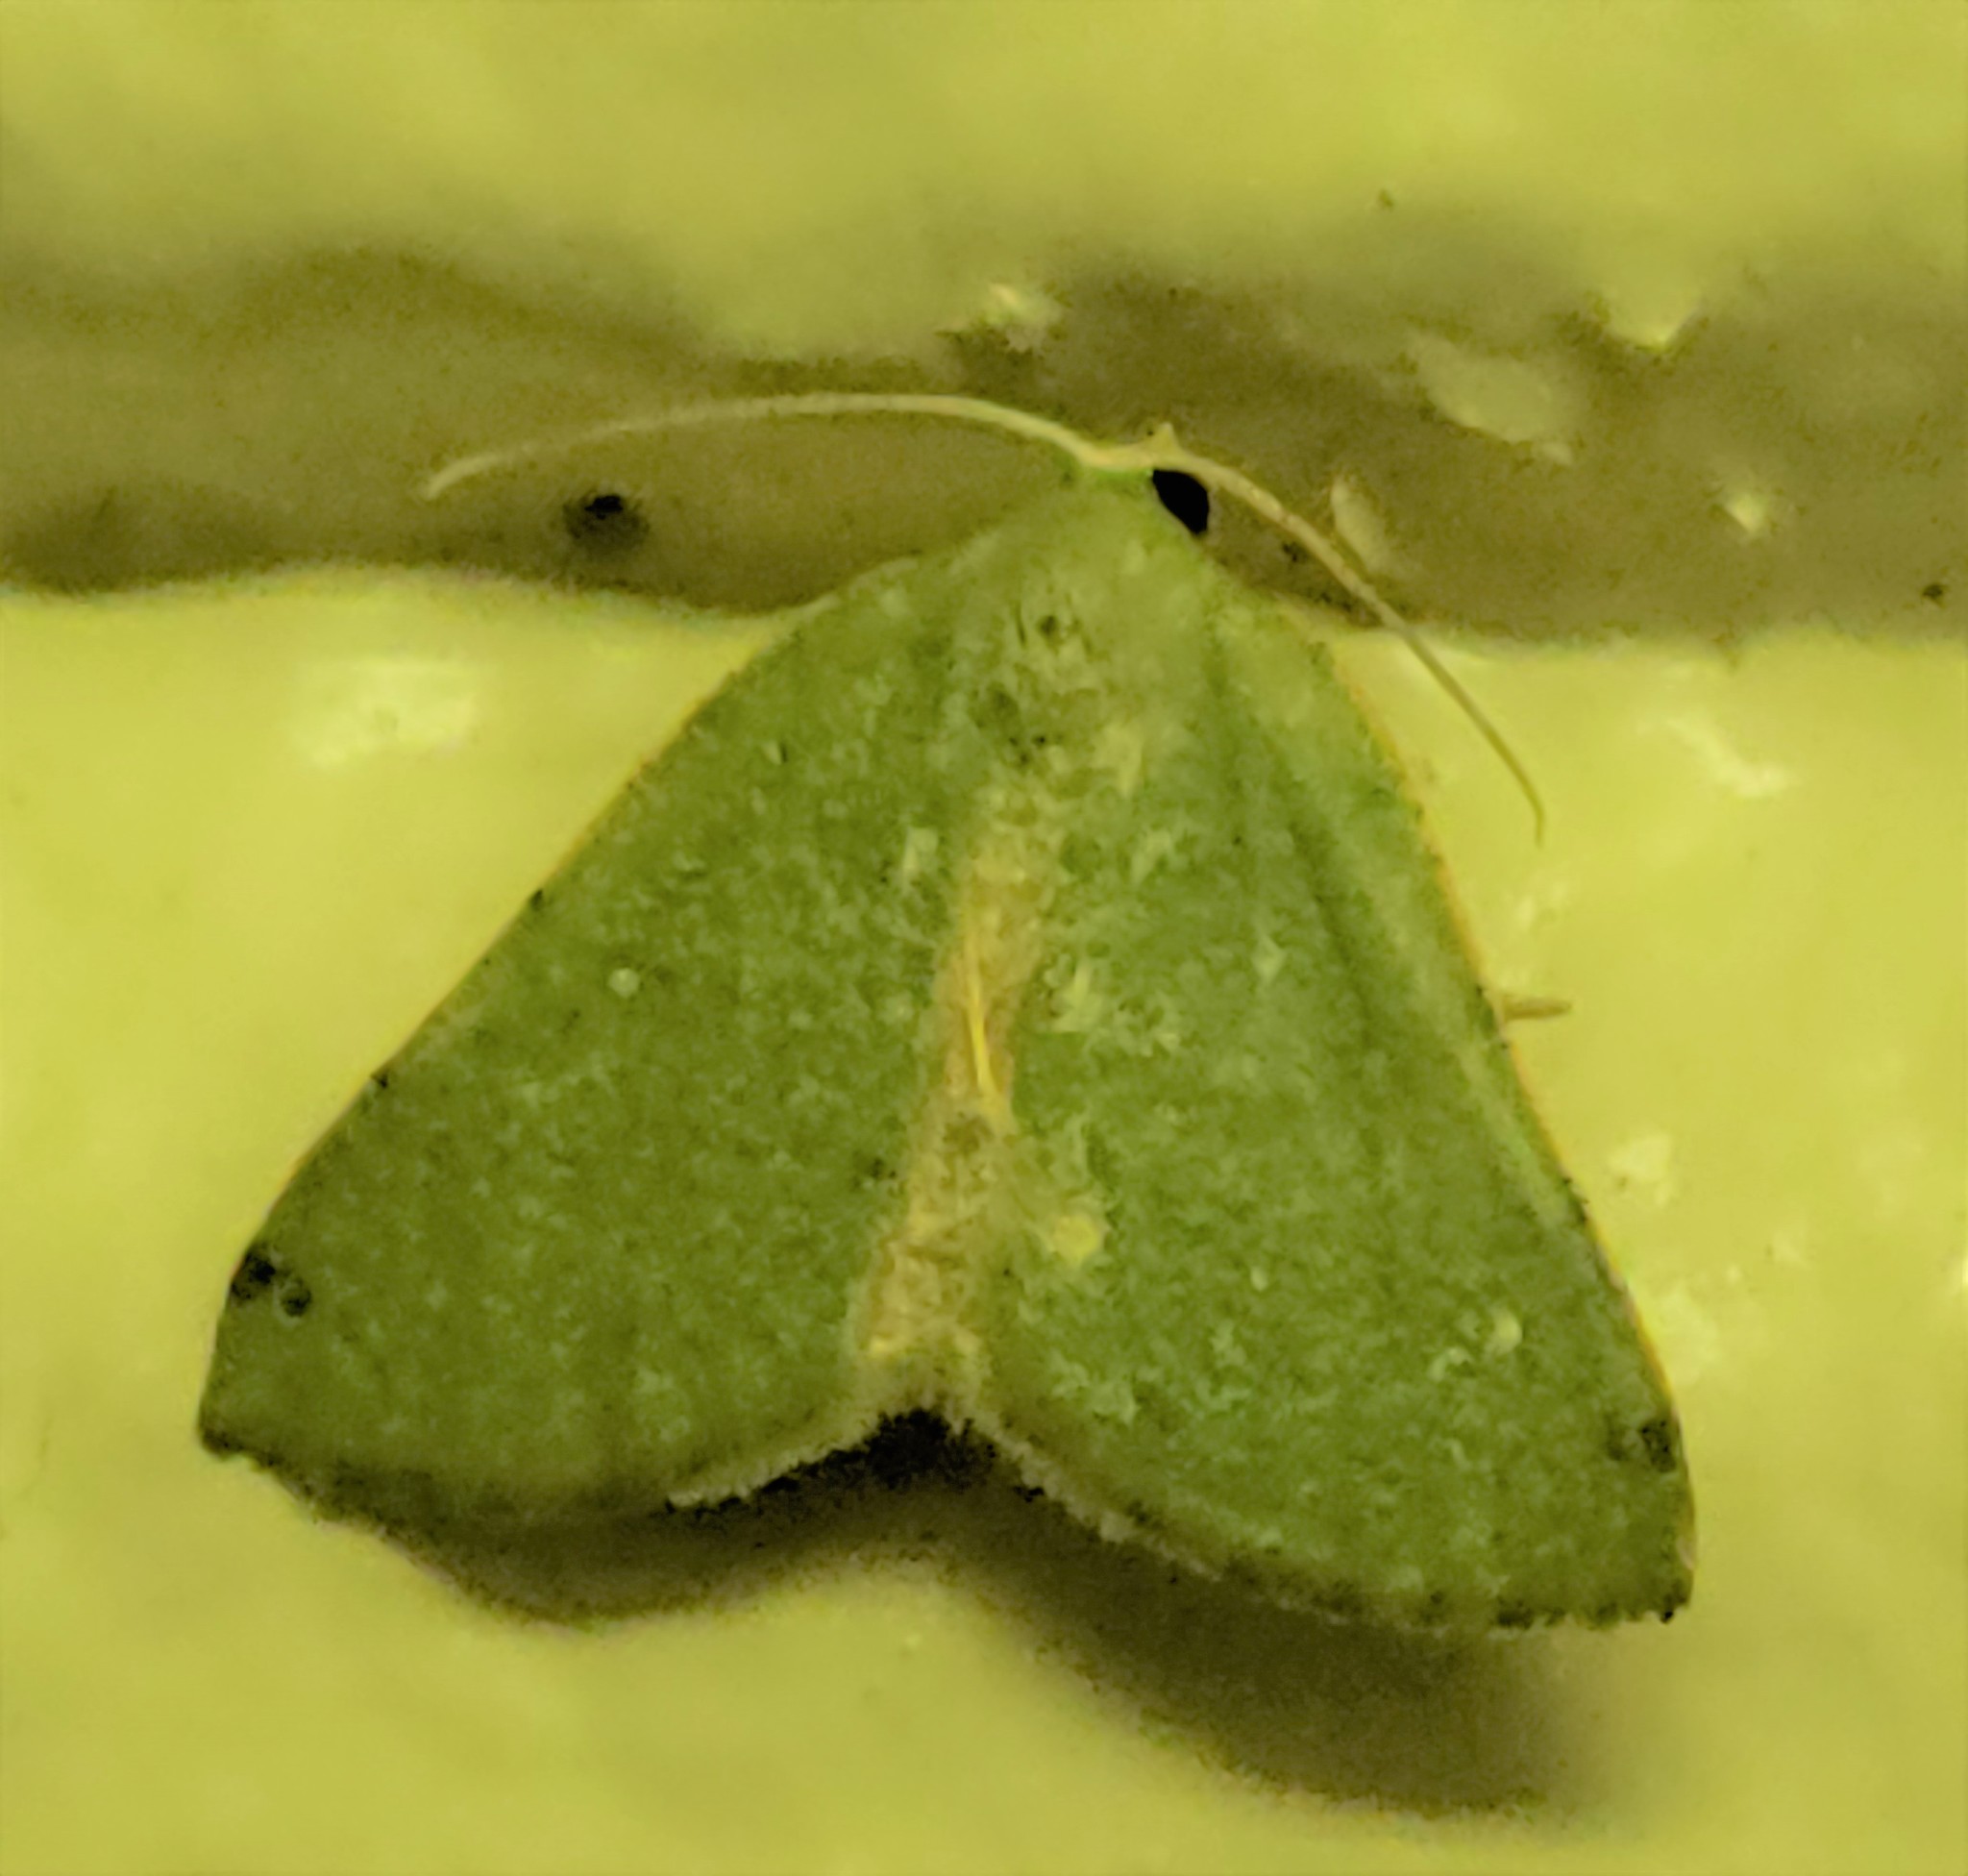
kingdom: Animalia
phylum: Arthropoda
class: Insecta
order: Lepidoptera
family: Geometridae
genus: Chloraspilates
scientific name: Chloraspilates bicoloraria
